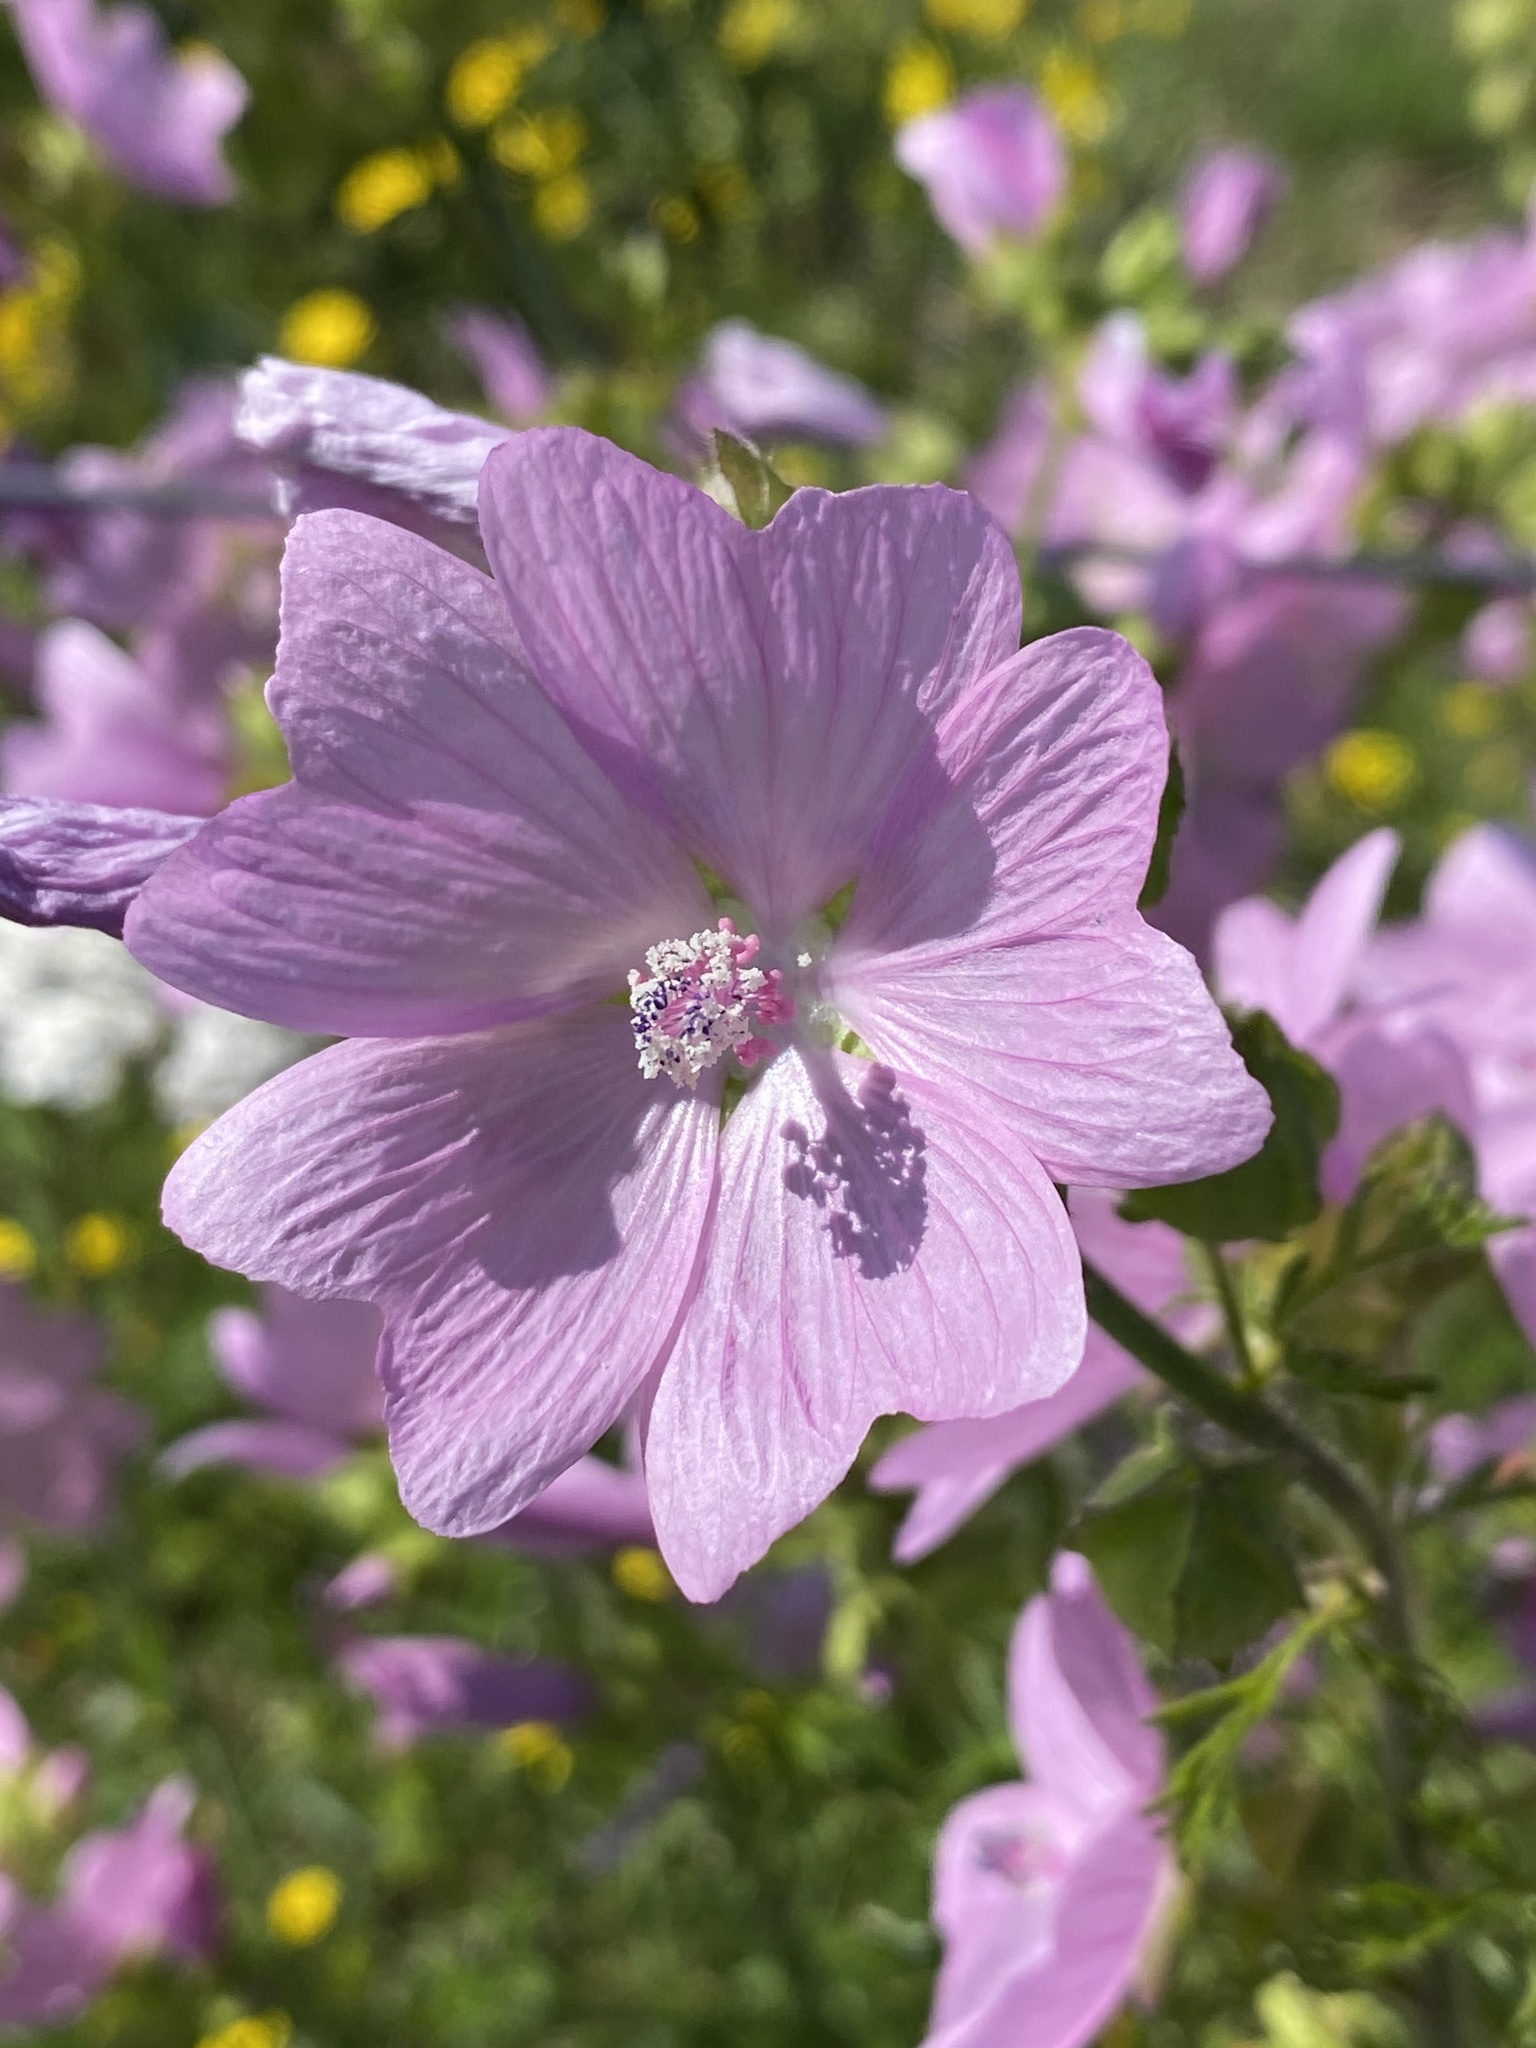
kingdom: Plantae
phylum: Tracheophyta
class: Magnoliopsida
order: Malvales
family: Malvaceae
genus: Malva
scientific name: Malva moschata
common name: Musk mallow
